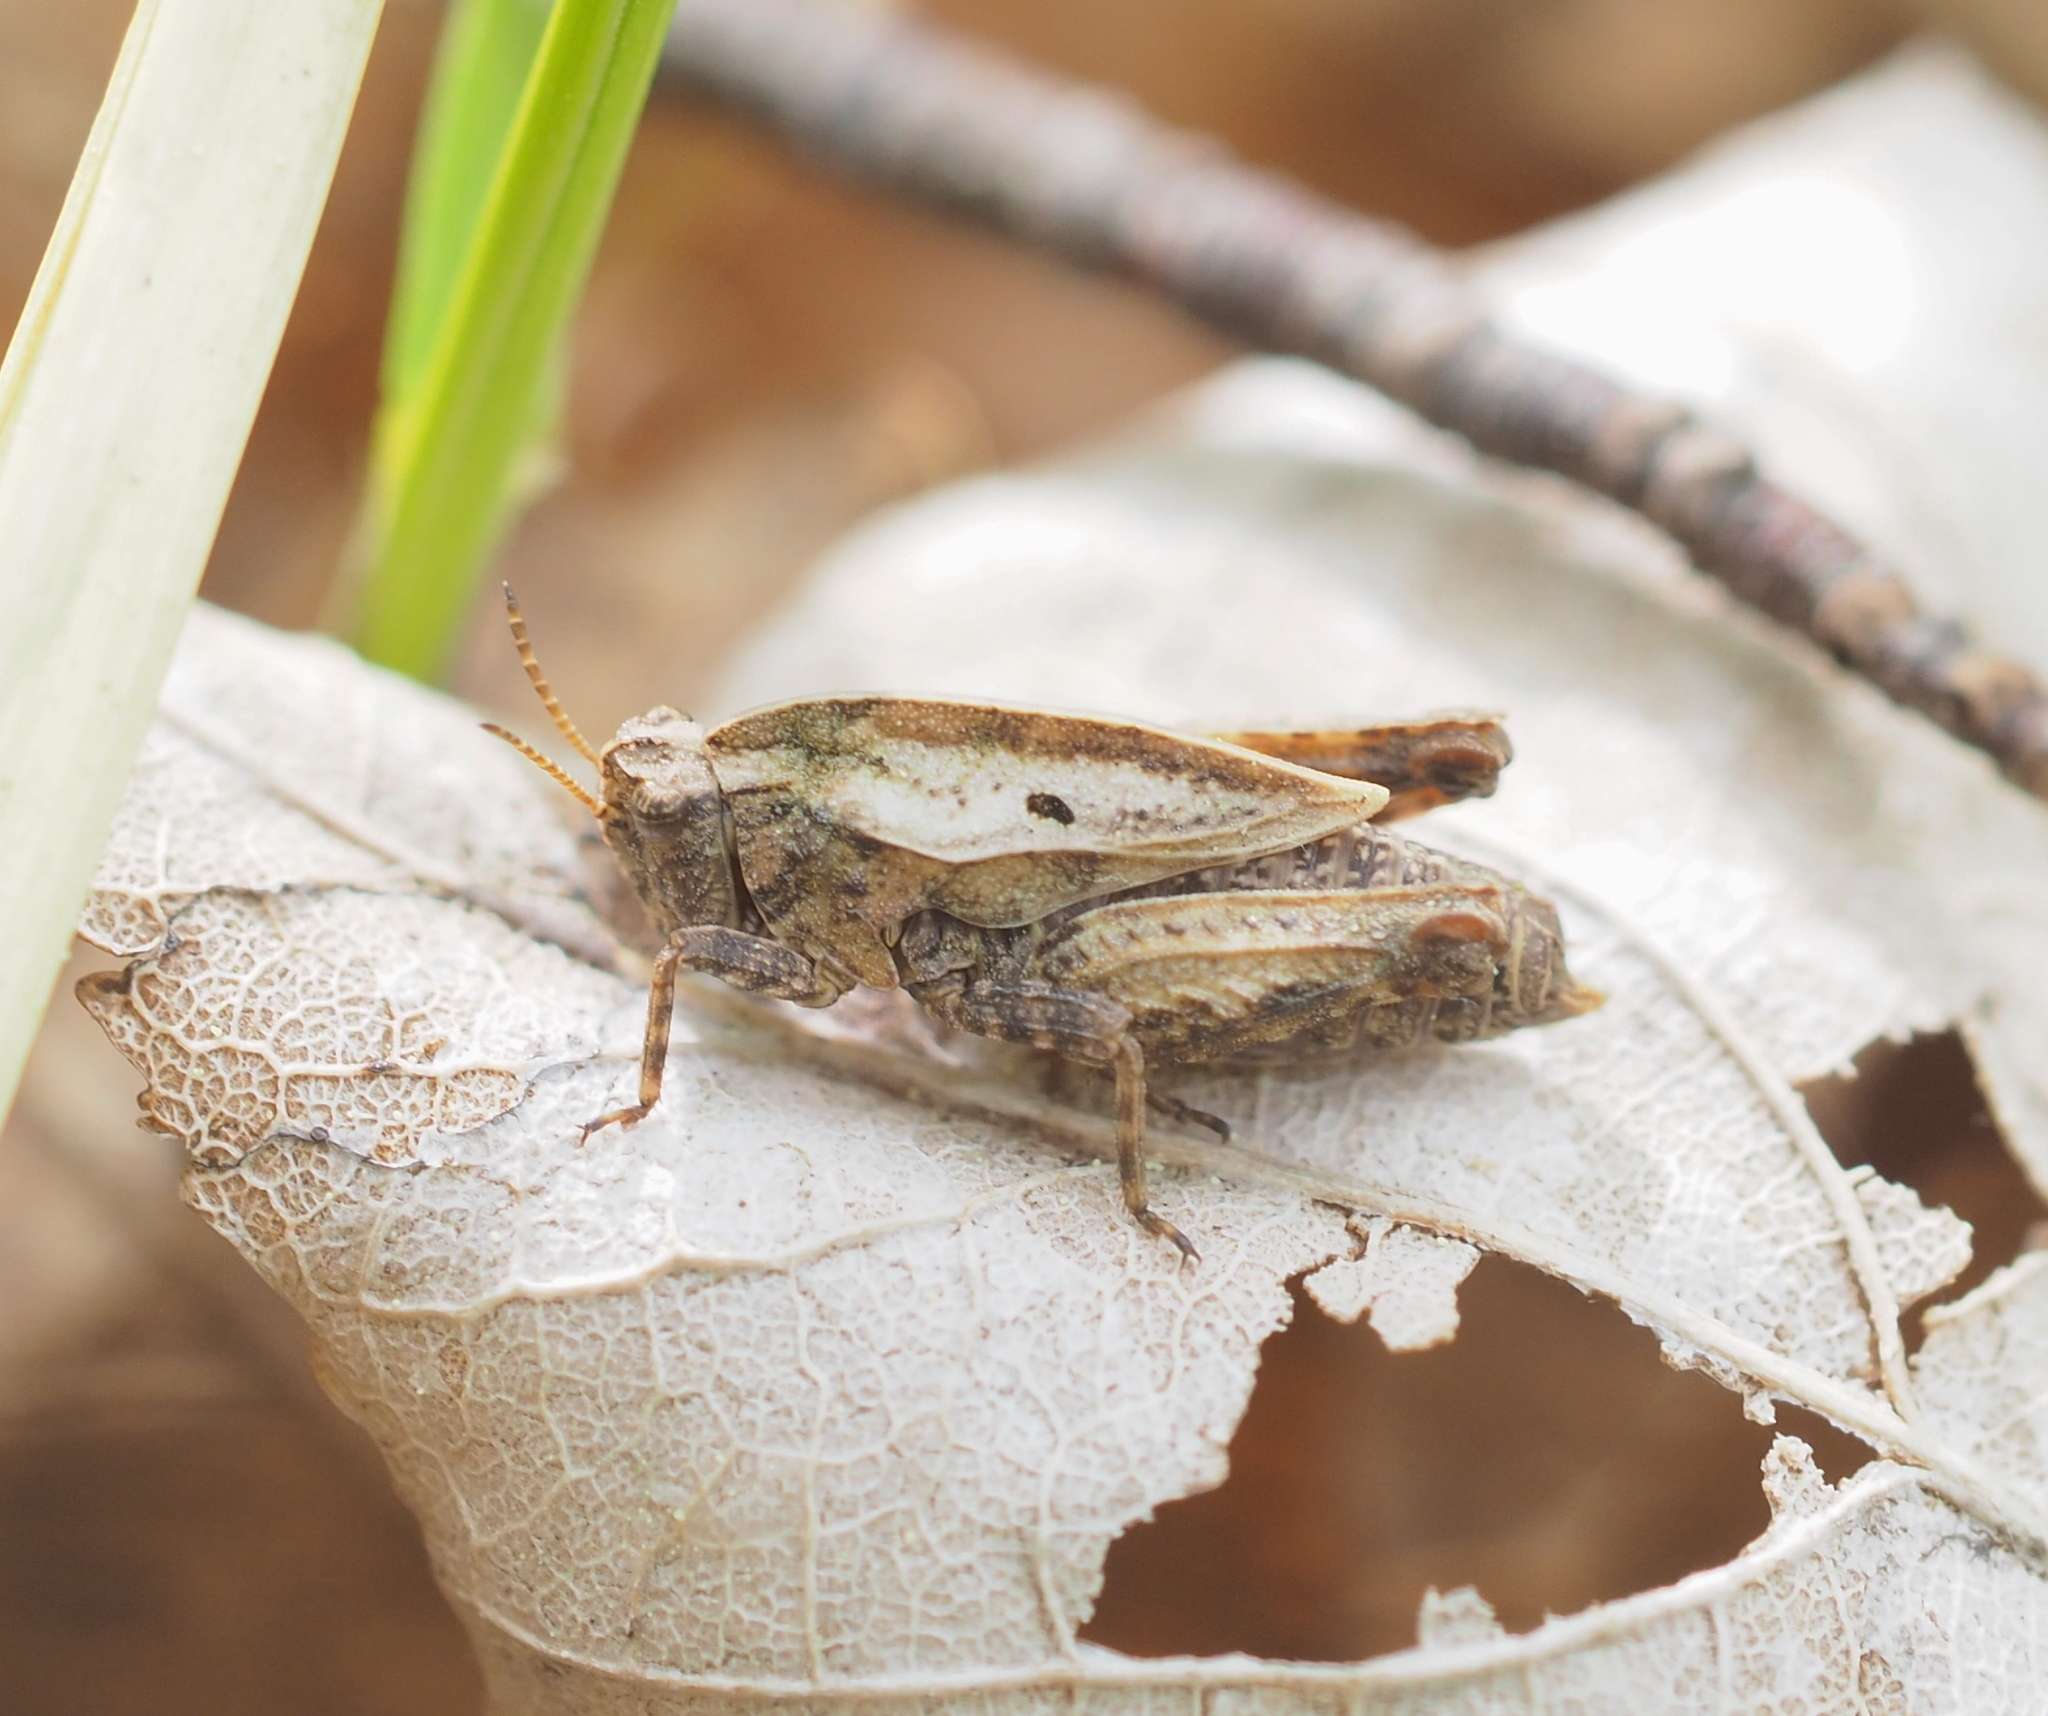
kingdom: Animalia
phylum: Arthropoda
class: Insecta
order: Orthoptera
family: Tetrigidae
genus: Tetrix
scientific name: Tetrix bipunctata
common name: Two-spotted groundhopper
